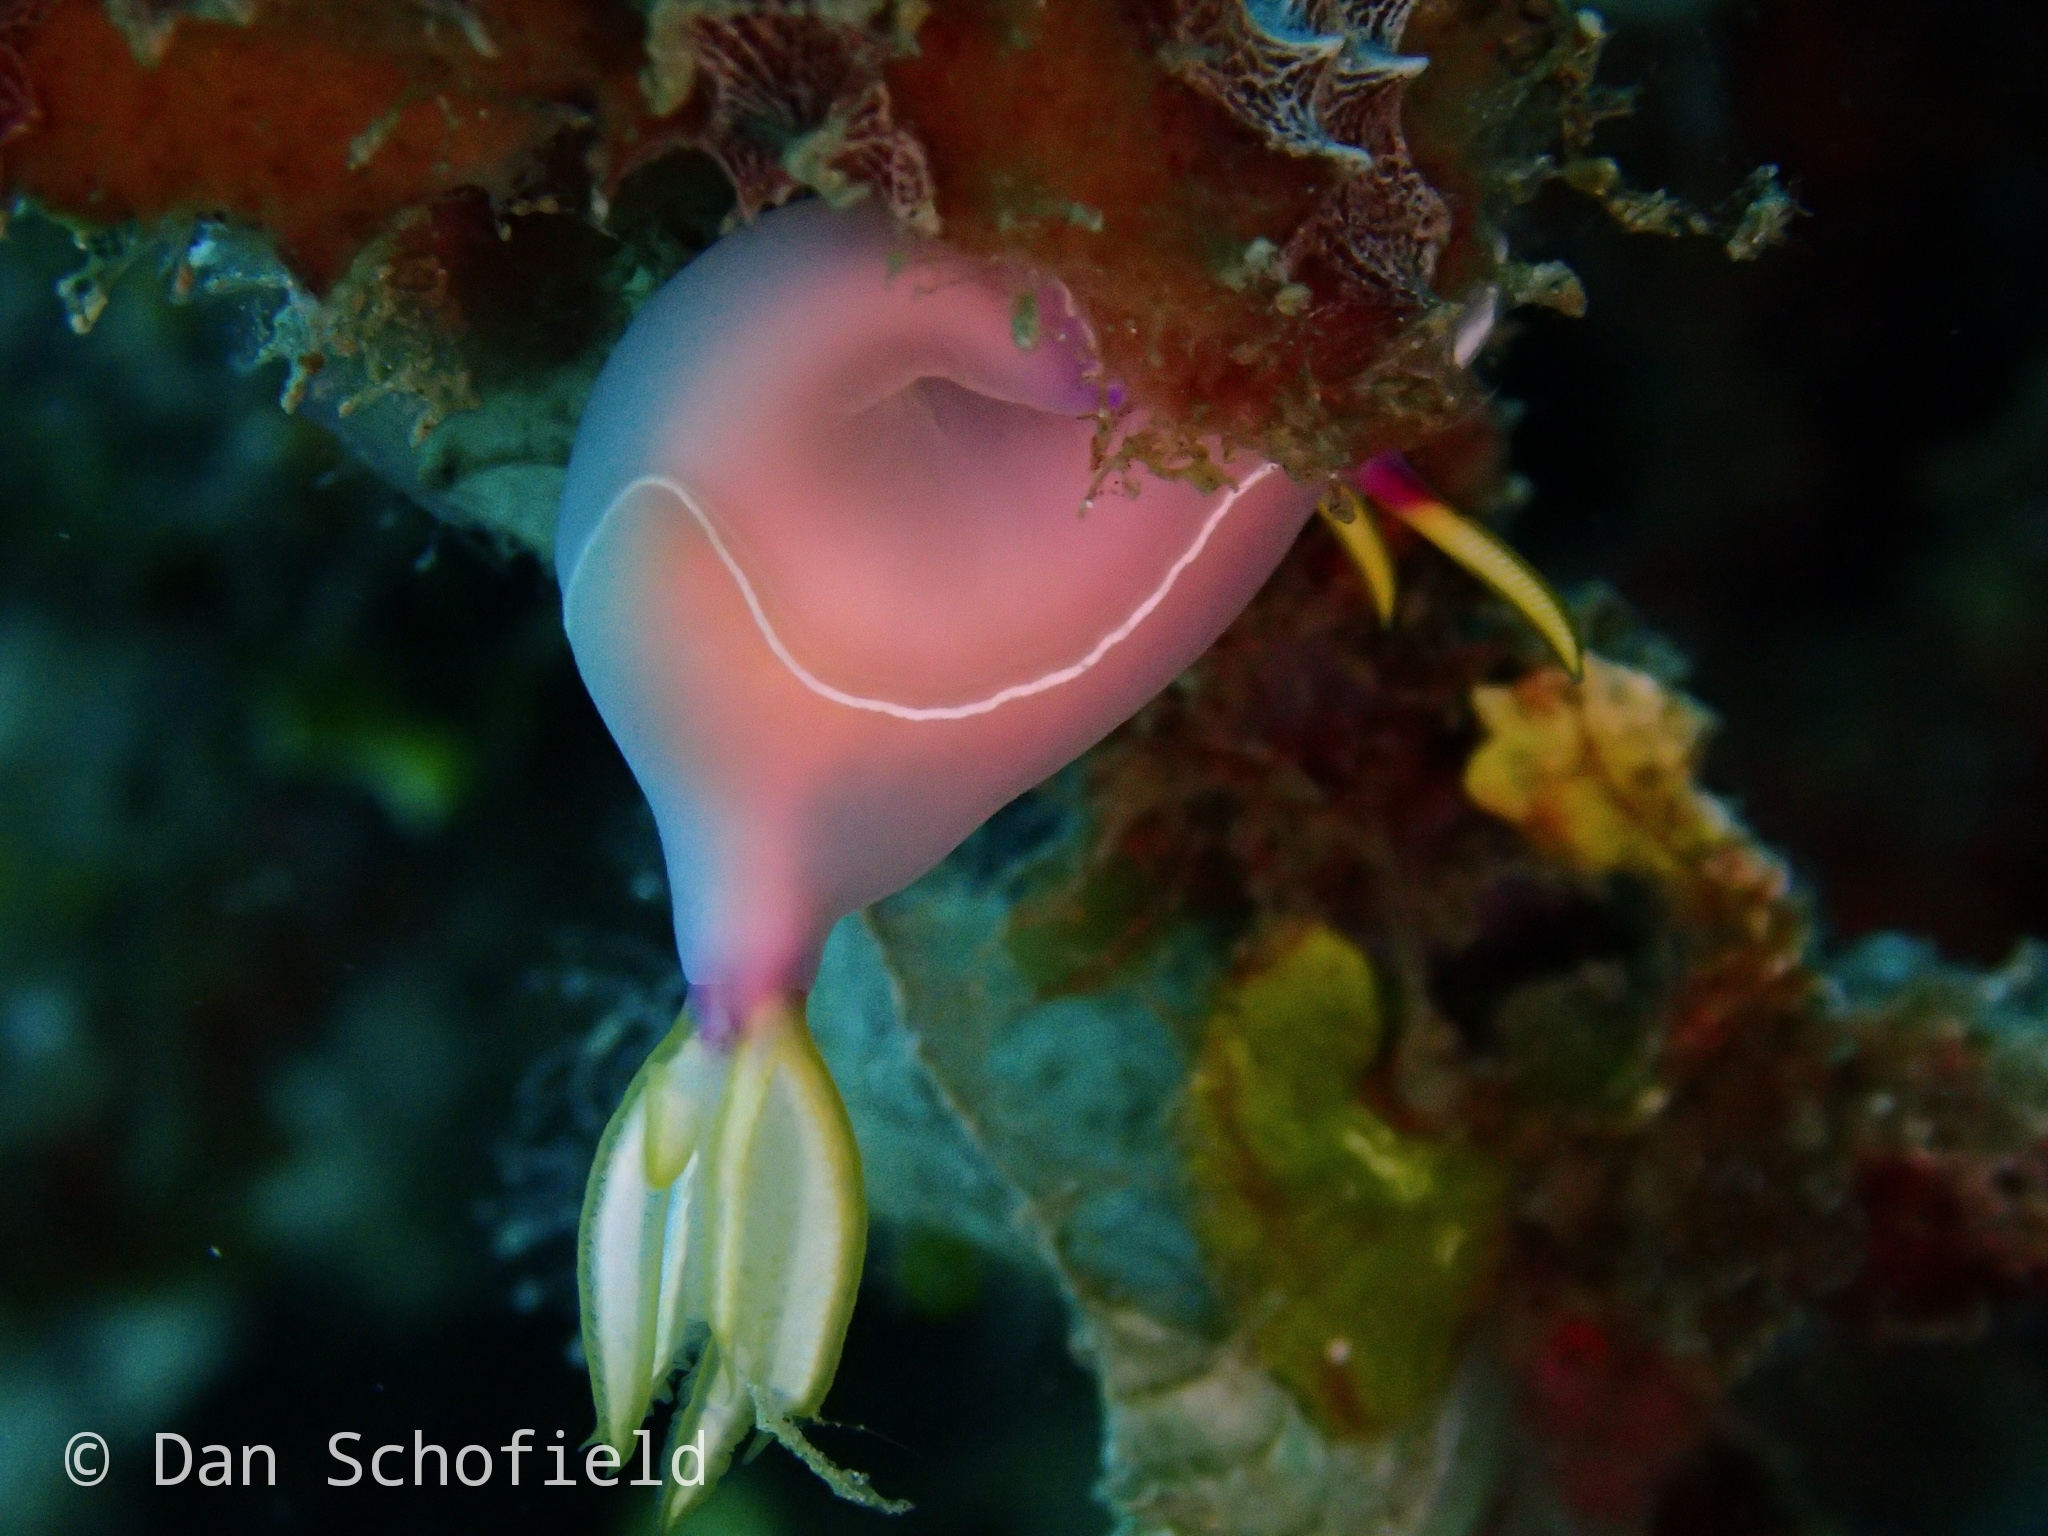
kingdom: Animalia
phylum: Mollusca
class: Gastropoda
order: Nudibranchia
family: Chromodorididae
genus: Hypselodoris
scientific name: Hypselodoris bullockii
